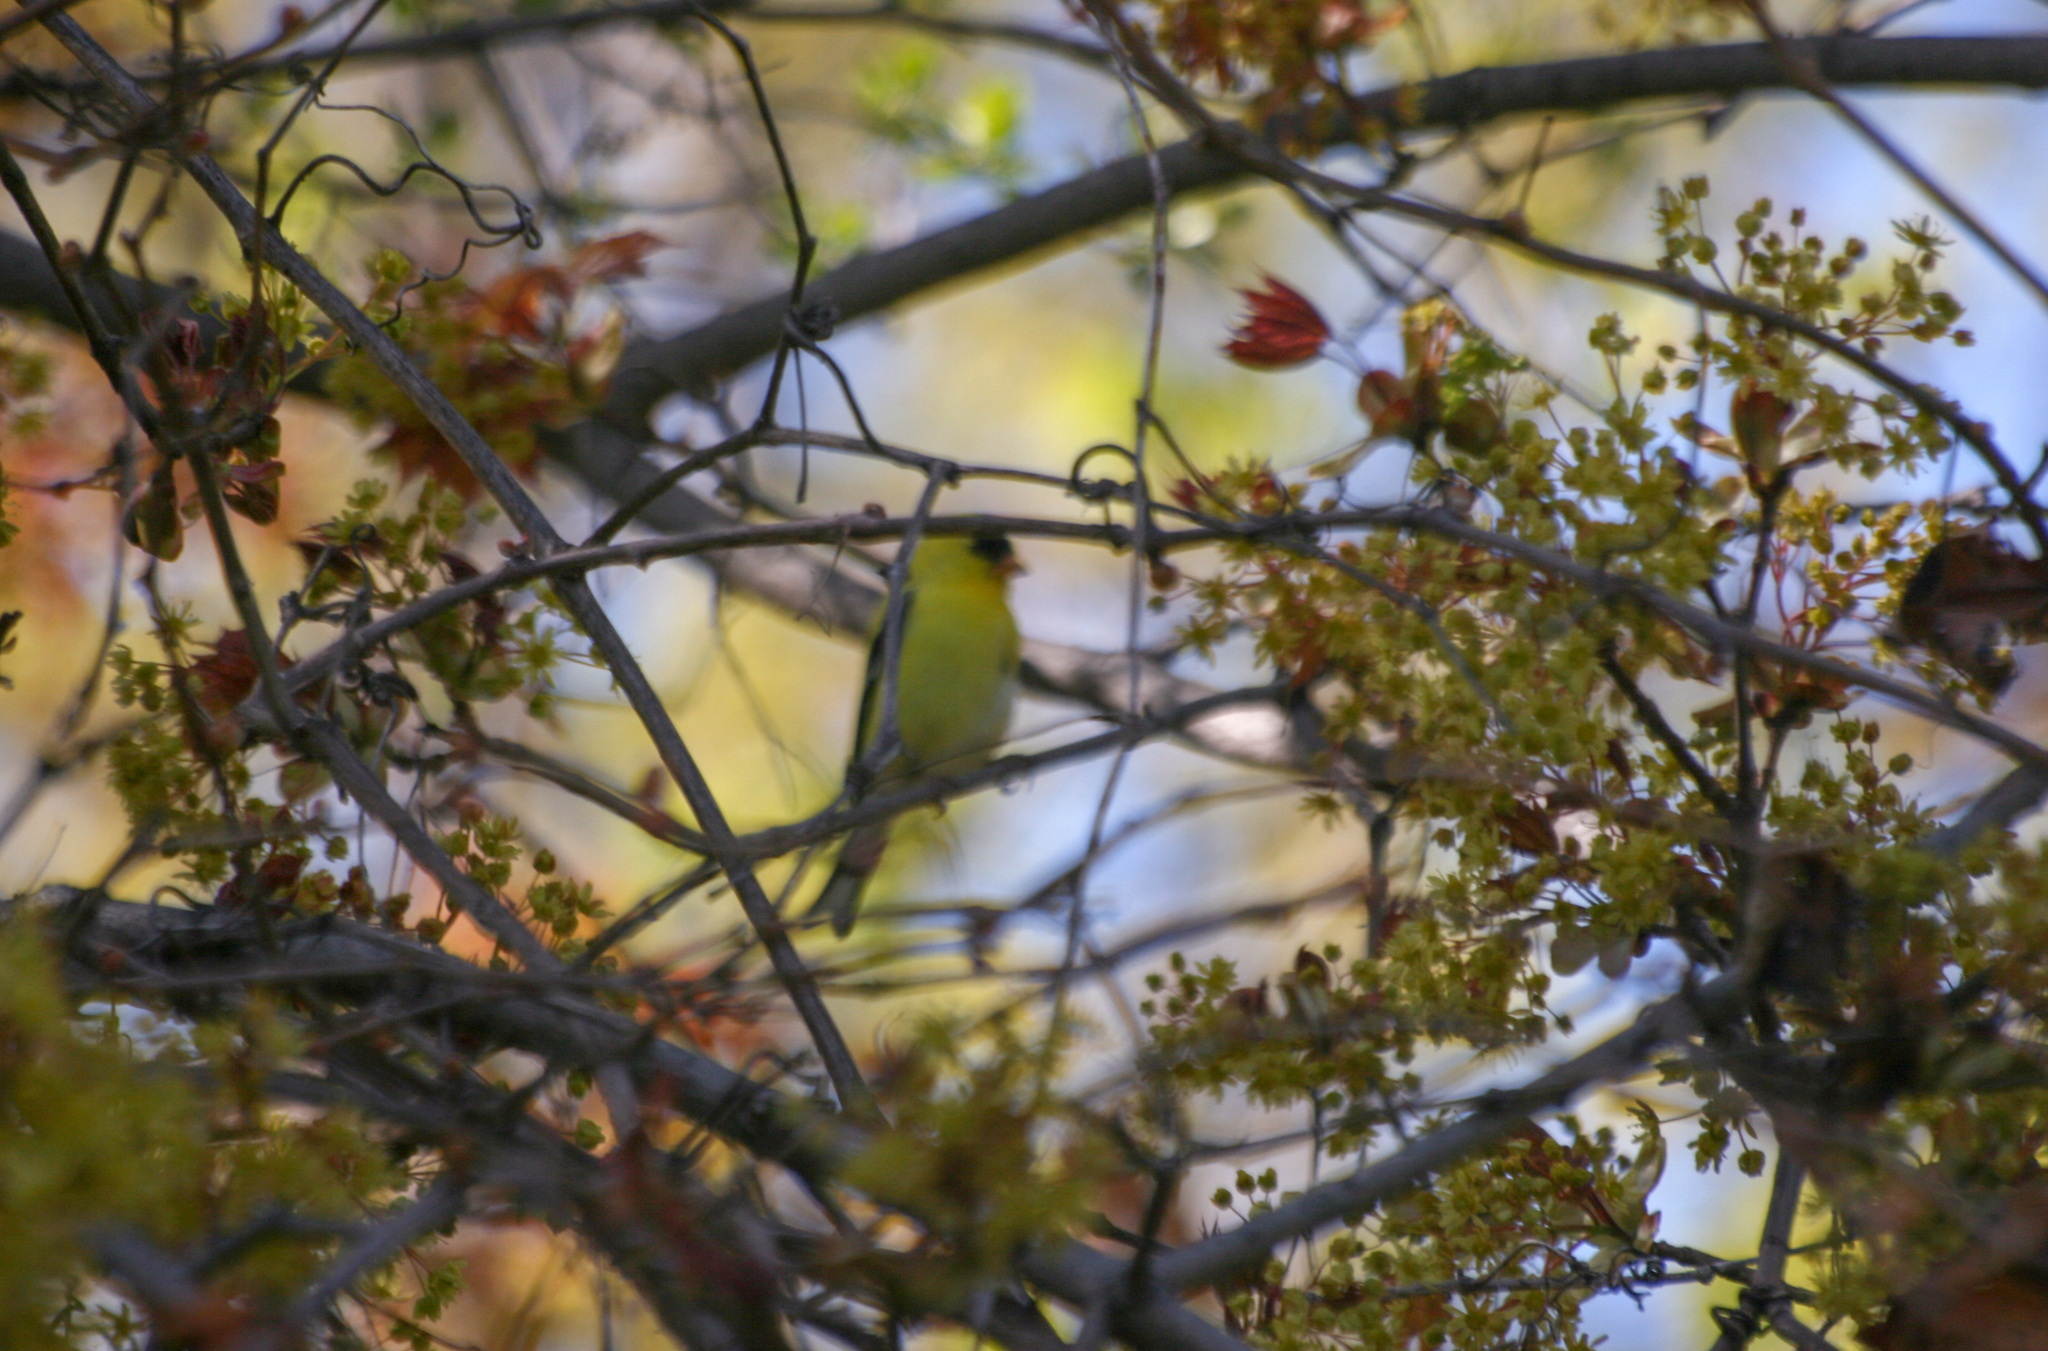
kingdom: Animalia
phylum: Chordata
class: Aves
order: Passeriformes
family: Fringillidae
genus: Spinus
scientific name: Spinus tristis
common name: American goldfinch
